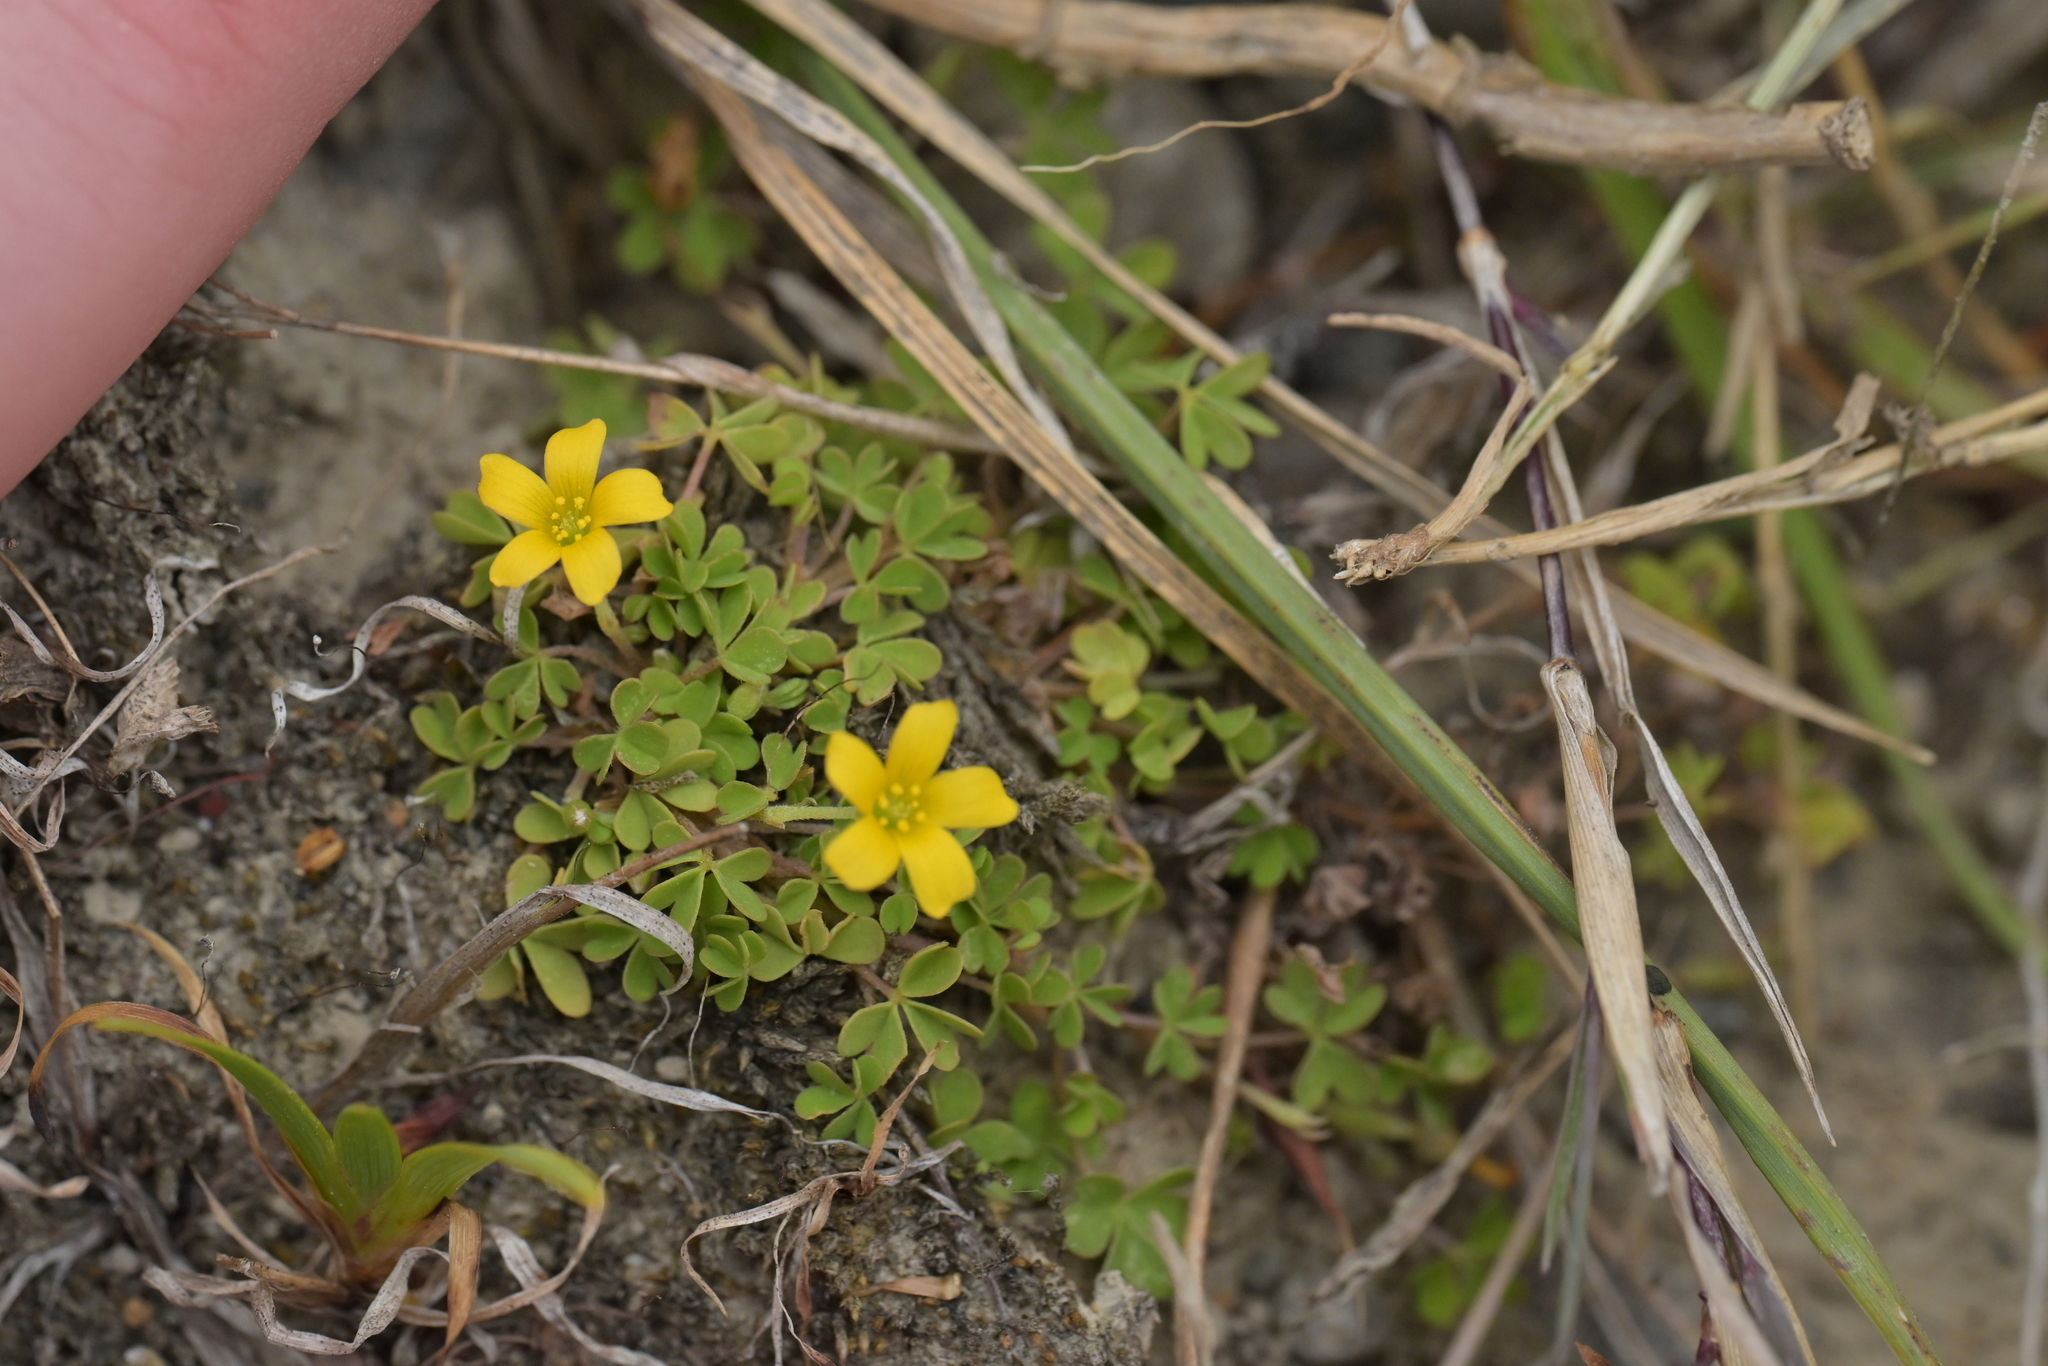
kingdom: Plantae
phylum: Tracheophyta
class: Magnoliopsida
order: Oxalidales
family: Oxalidaceae
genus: Oxalis
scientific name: Oxalis exilis
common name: Least yellow-sorrel
